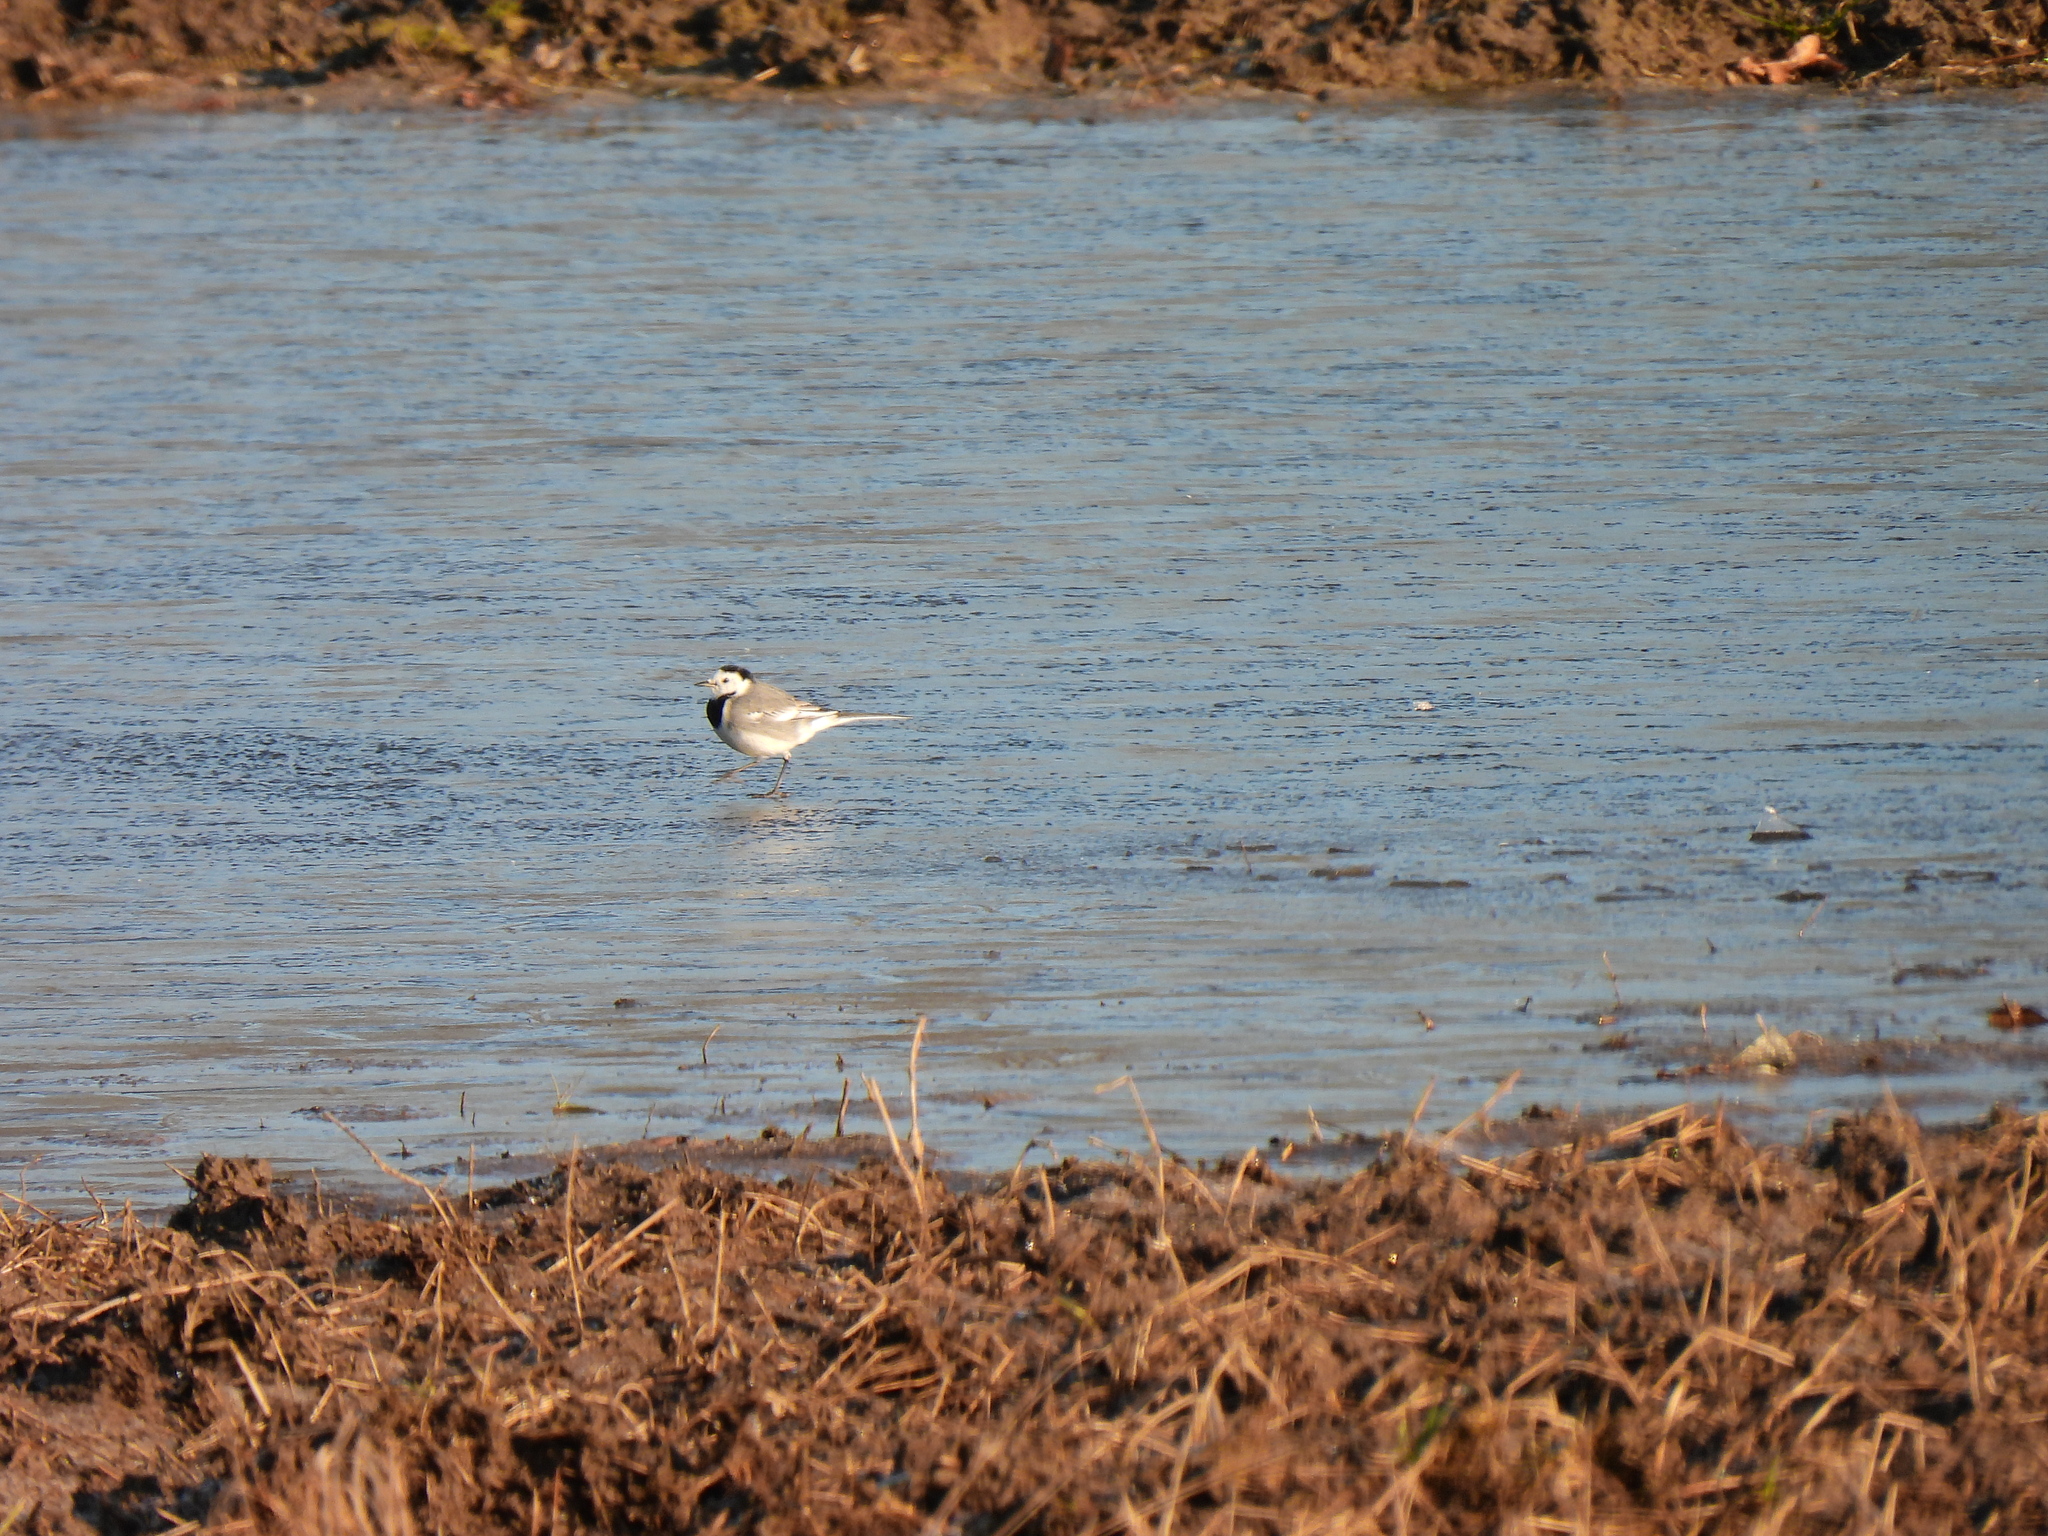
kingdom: Animalia
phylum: Chordata
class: Aves
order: Passeriformes
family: Motacillidae
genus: Motacilla
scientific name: Motacilla alba
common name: White wagtail
